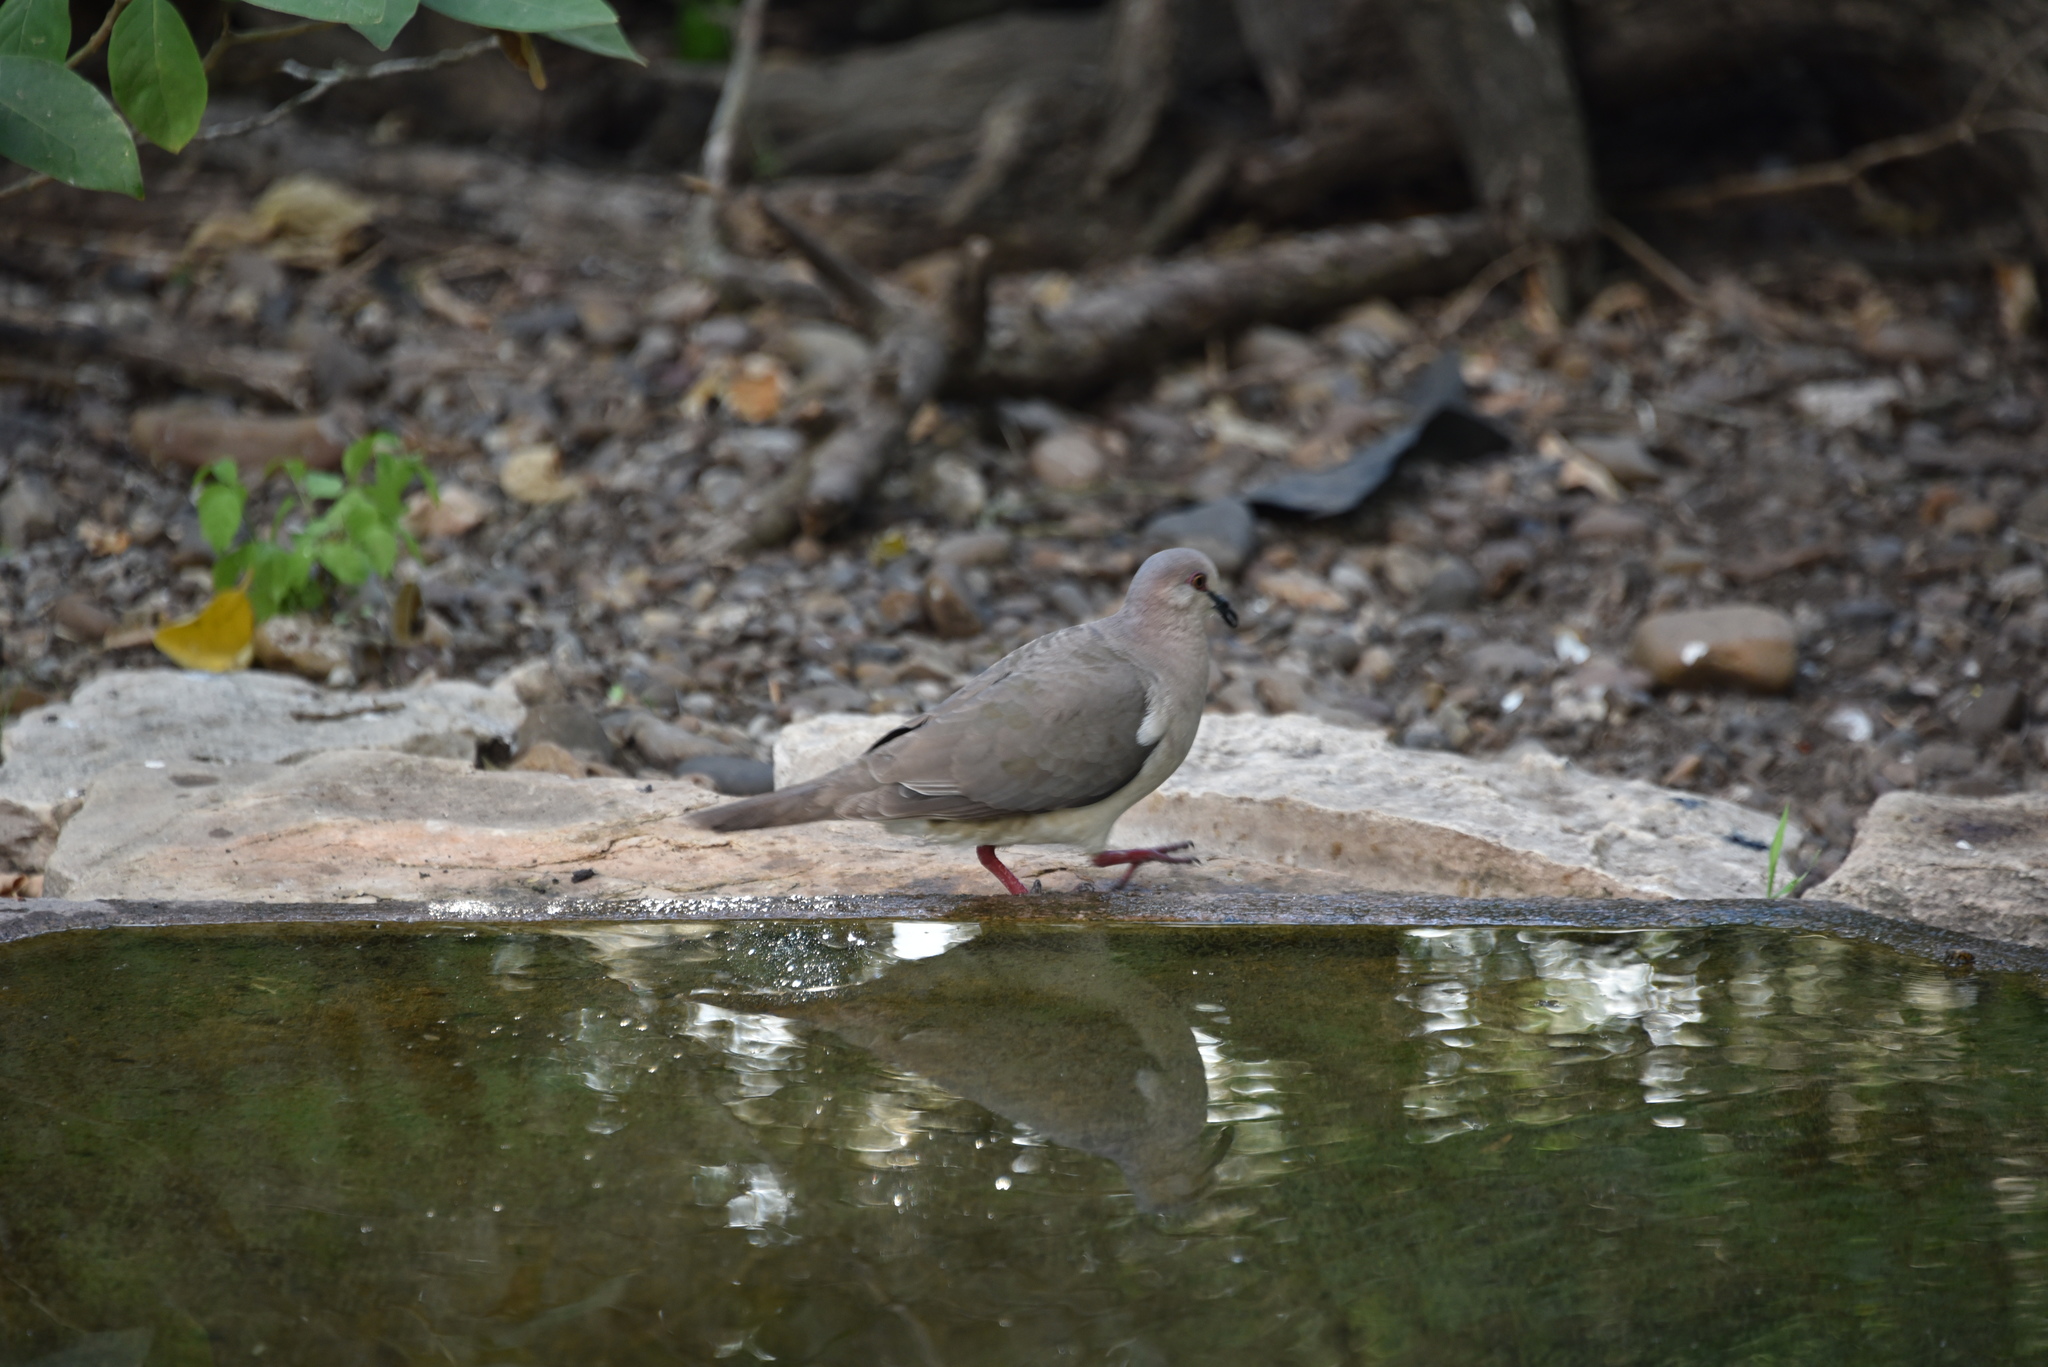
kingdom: Animalia
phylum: Chordata
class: Aves
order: Columbiformes
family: Columbidae
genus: Leptotila
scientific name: Leptotila verreauxi
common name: White-tipped dove
